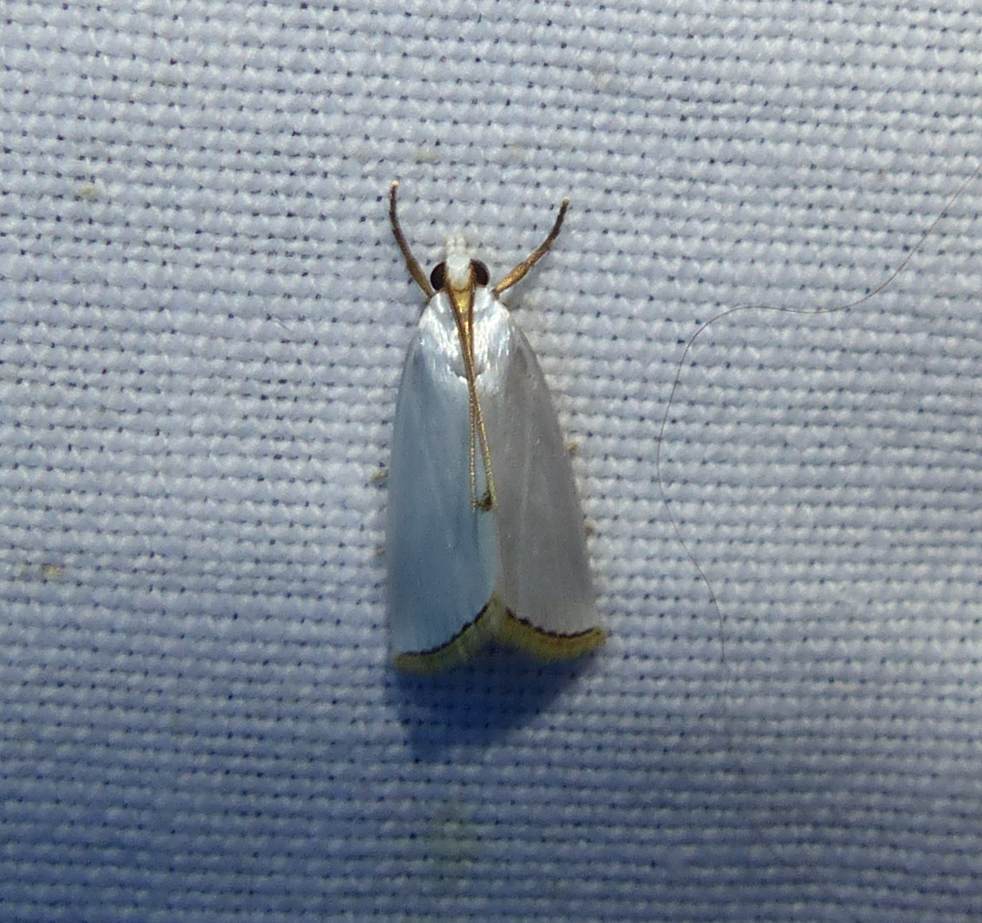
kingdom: Animalia
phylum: Arthropoda
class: Insecta
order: Lepidoptera
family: Crambidae
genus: Argyria
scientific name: Argyria nivalis
